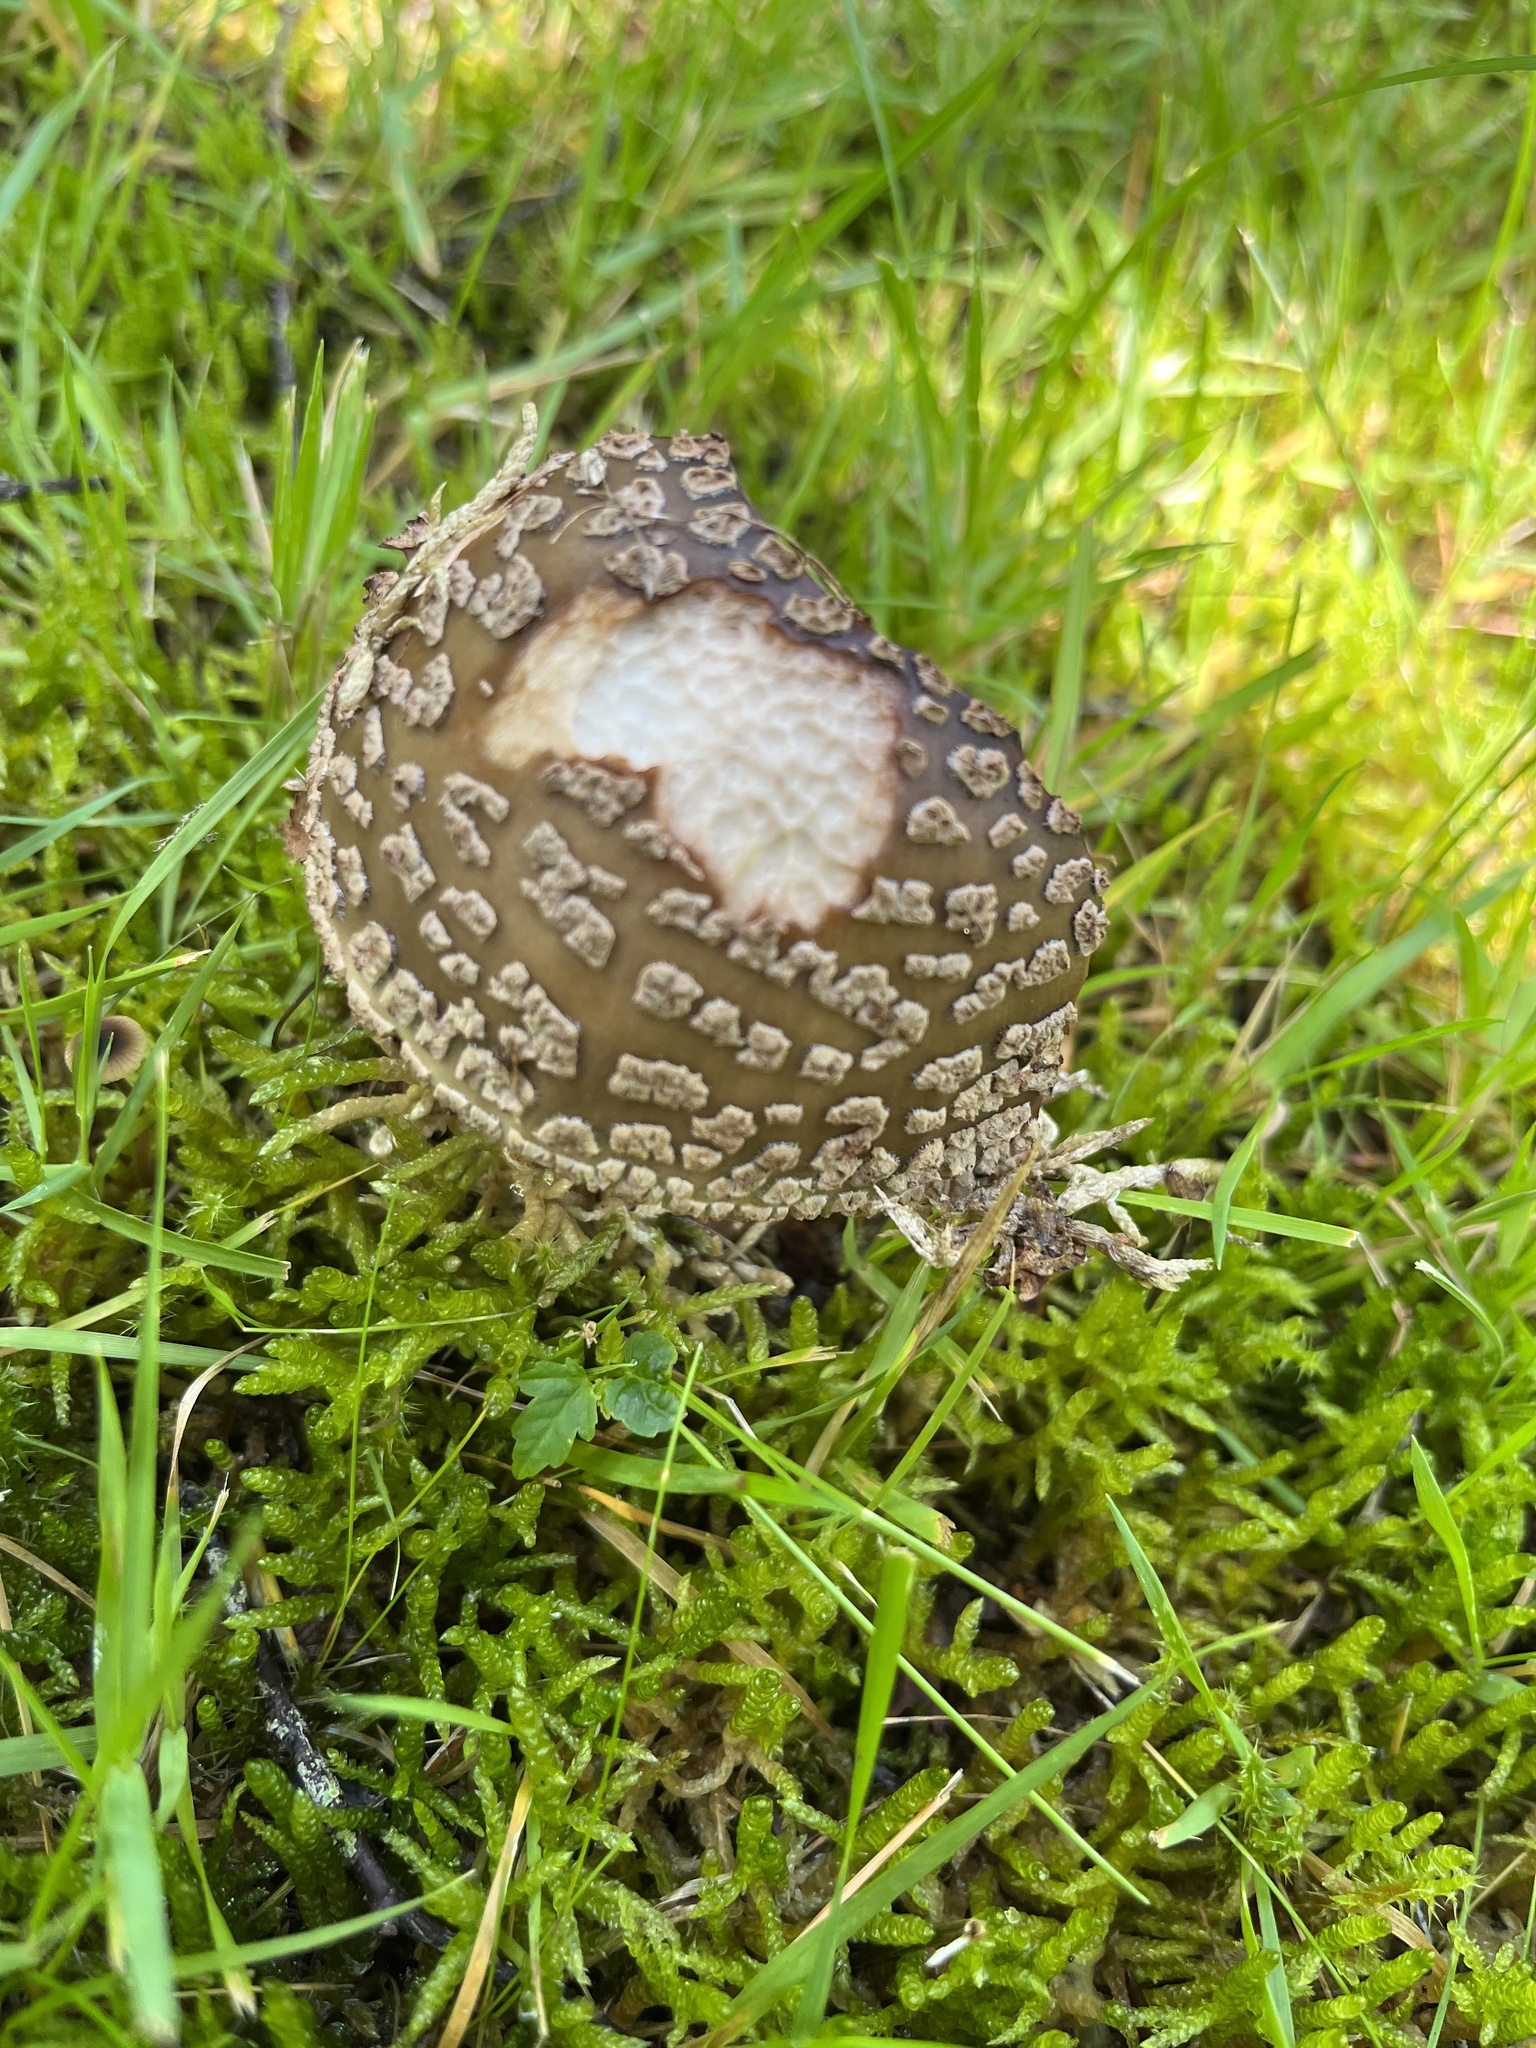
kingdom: Fungi
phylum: Basidiomycota
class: Agaricomycetes
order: Agaricales
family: Amanitaceae
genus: Amanita
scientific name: Amanita rubescens
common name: Blusher
